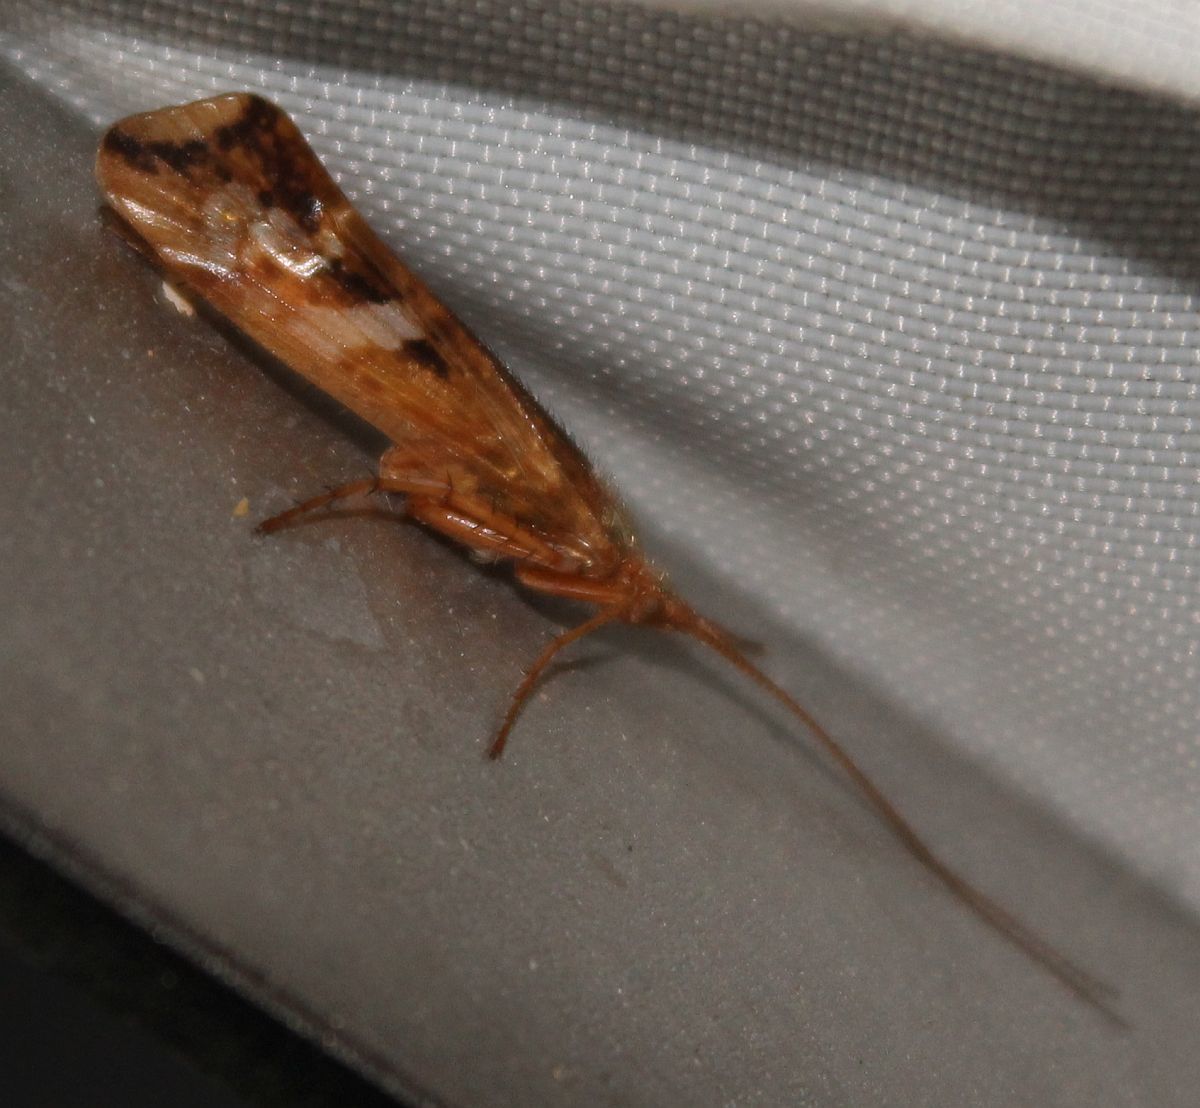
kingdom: Animalia
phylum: Arthropoda
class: Insecta
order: Trichoptera
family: Limnephilidae
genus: Limnephilus
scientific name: Limnephilus lunatus
